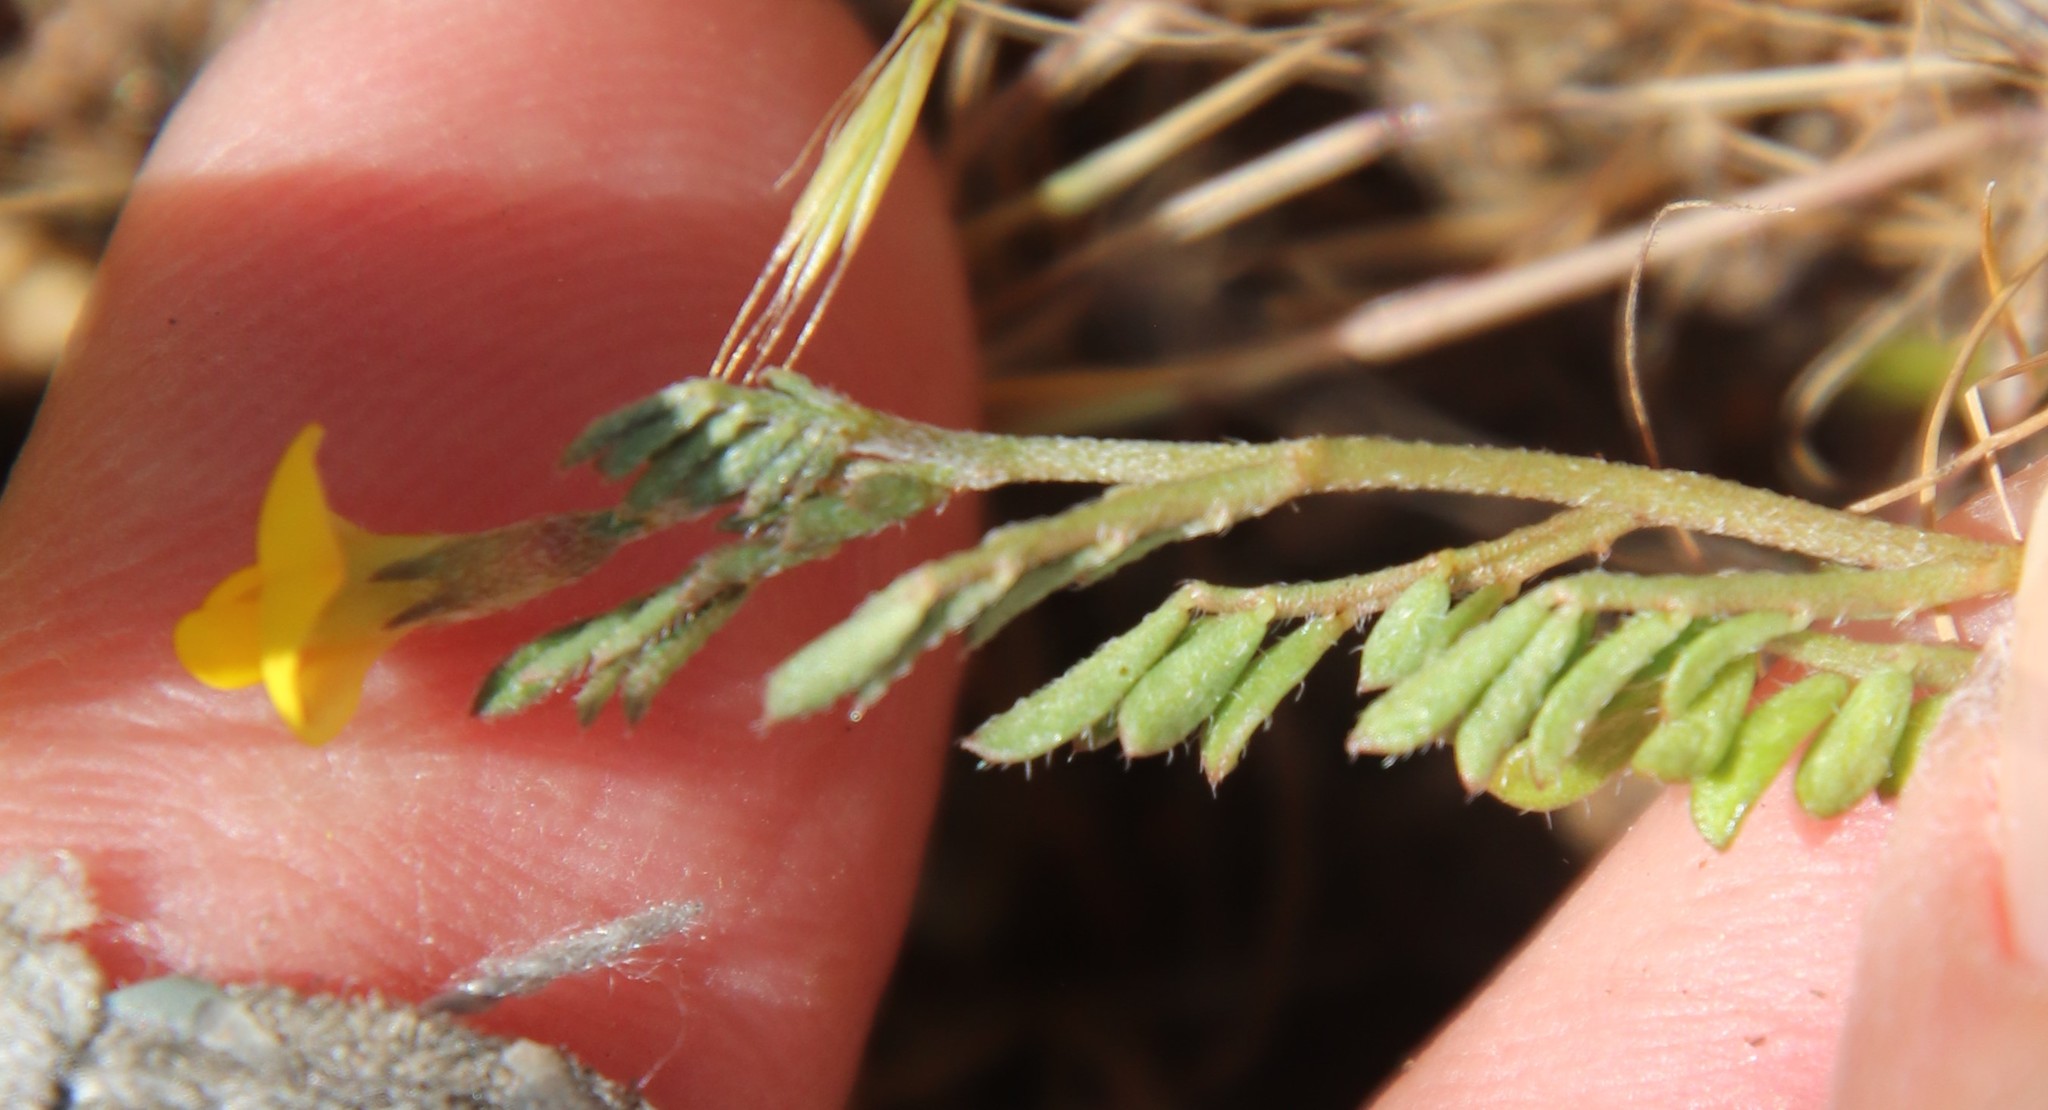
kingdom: Plantae
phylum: Tracheophyta
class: Magnoliopsida
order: Fabales
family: Fabaceae
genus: Acmispon
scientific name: Acmispon strigosus
